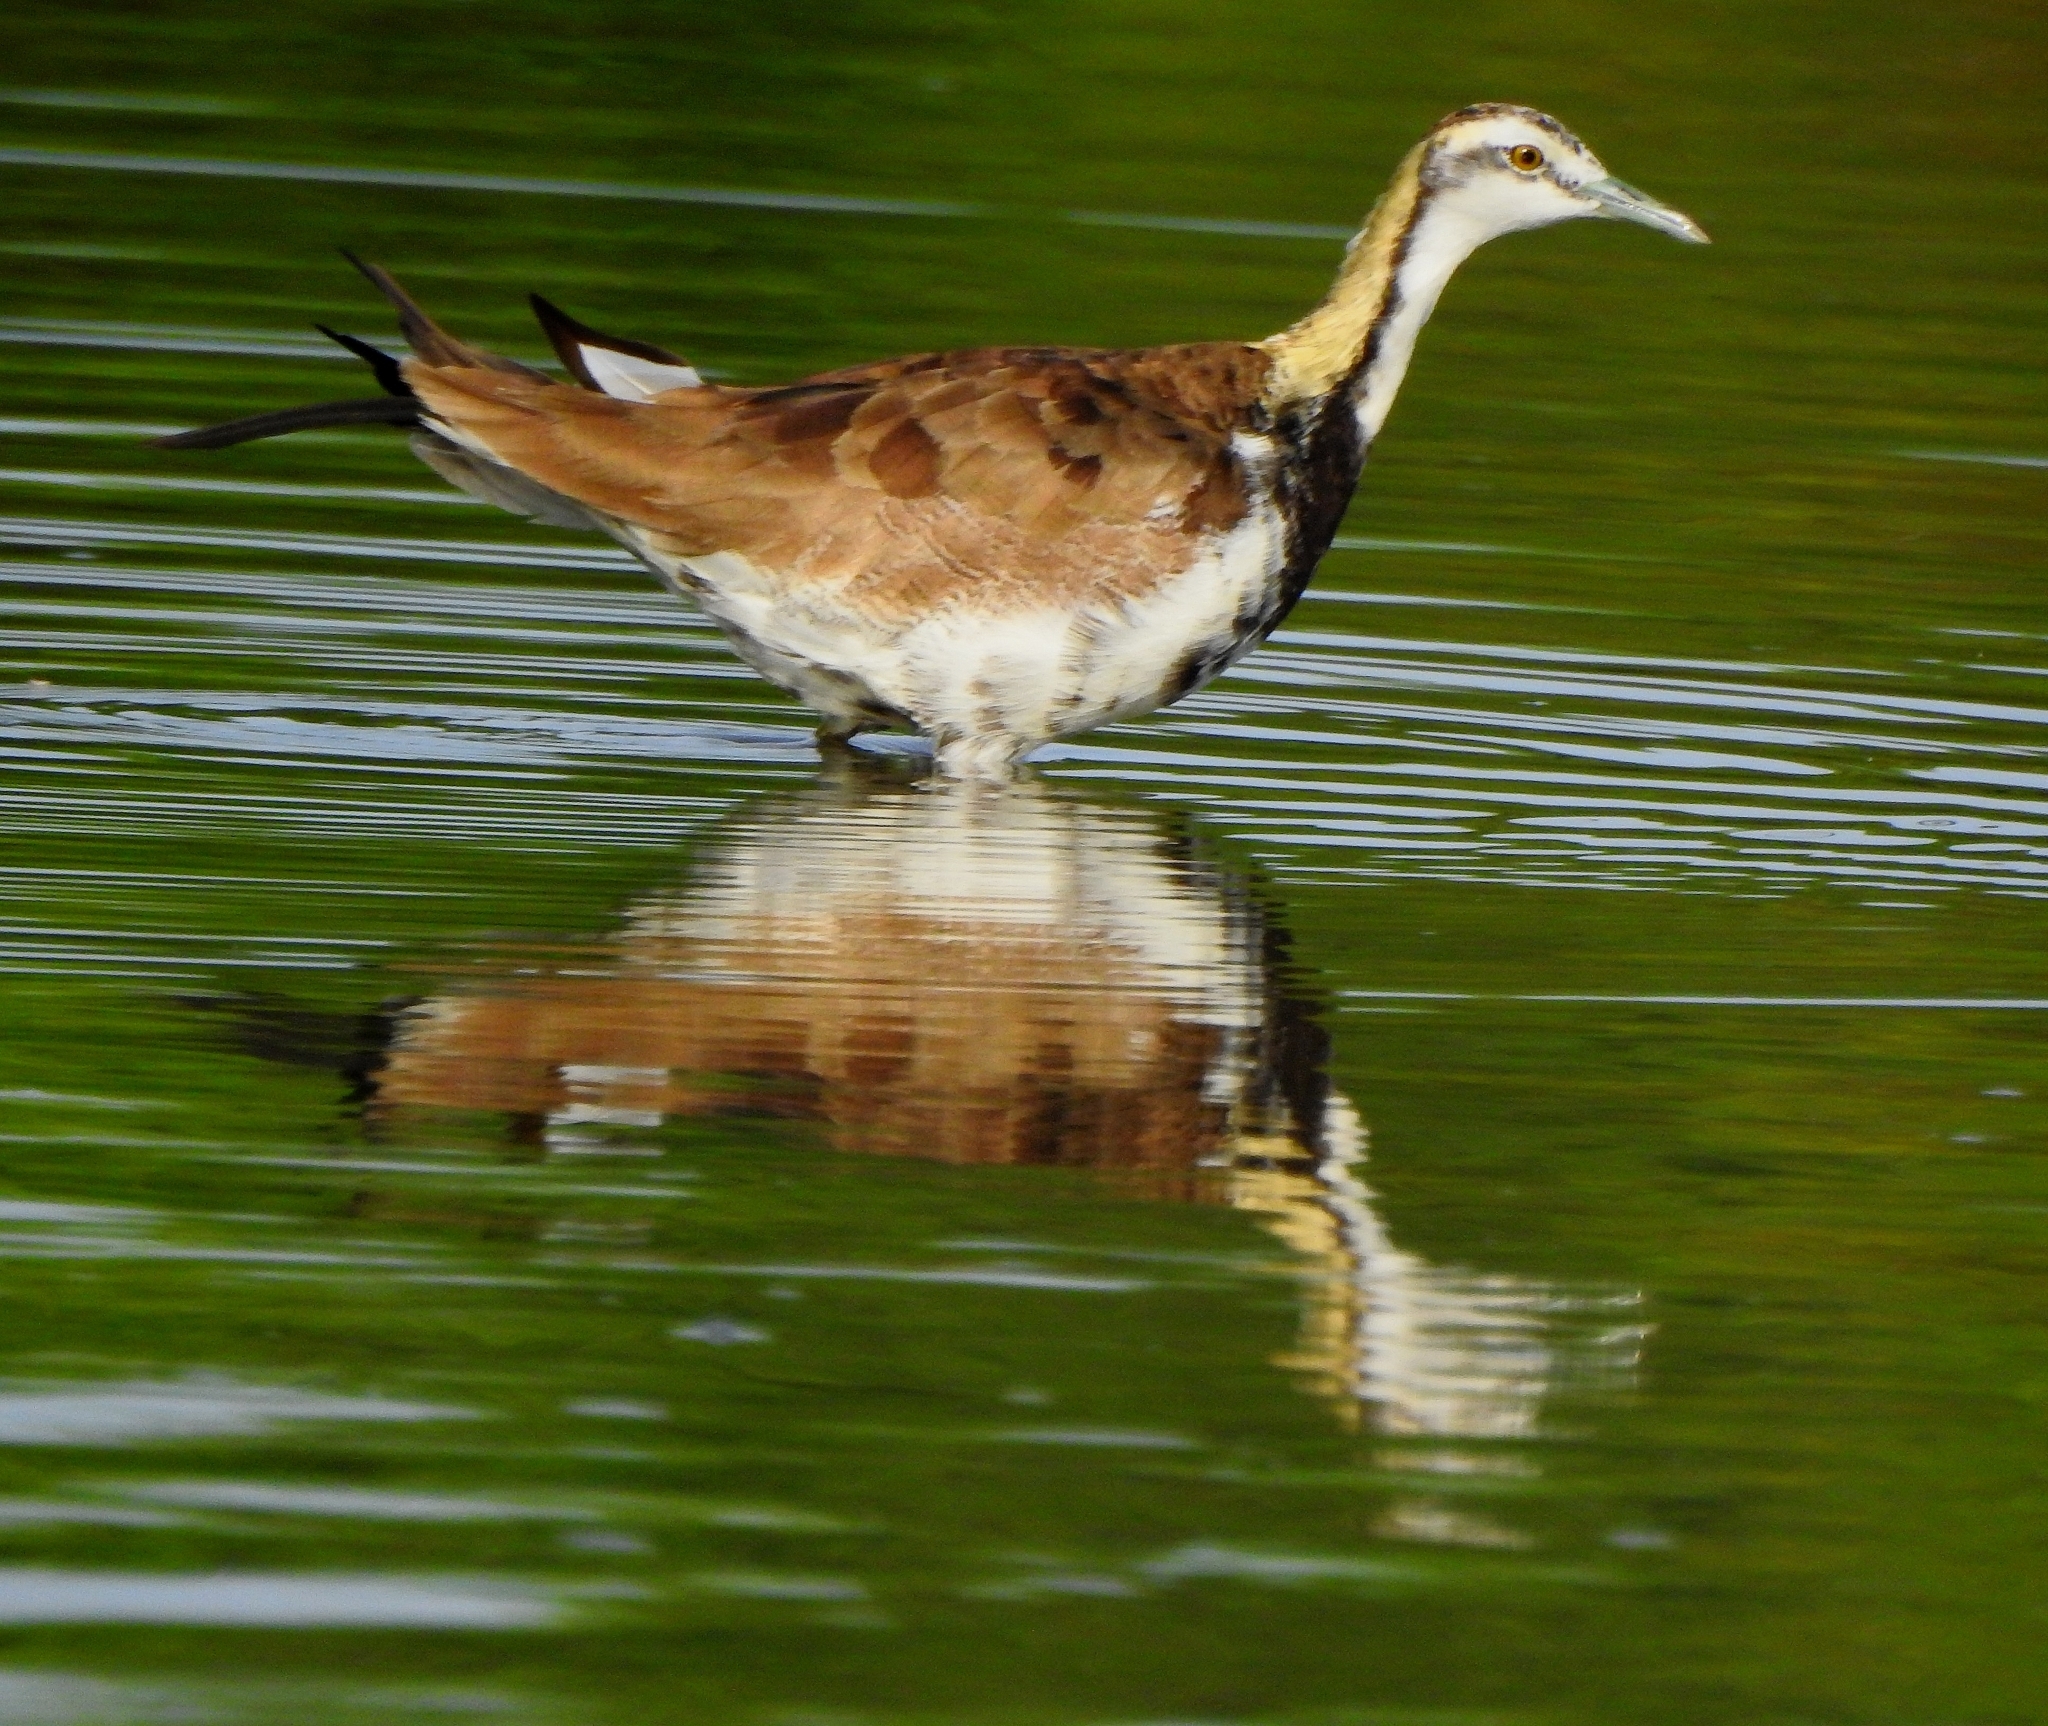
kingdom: Animalia
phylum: Chordata
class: Aves
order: Charadriiformes
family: Jacanidae
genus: Hydrophasianus
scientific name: Hydrophasianus chirurgus
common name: Pheasant-tailed jacana
